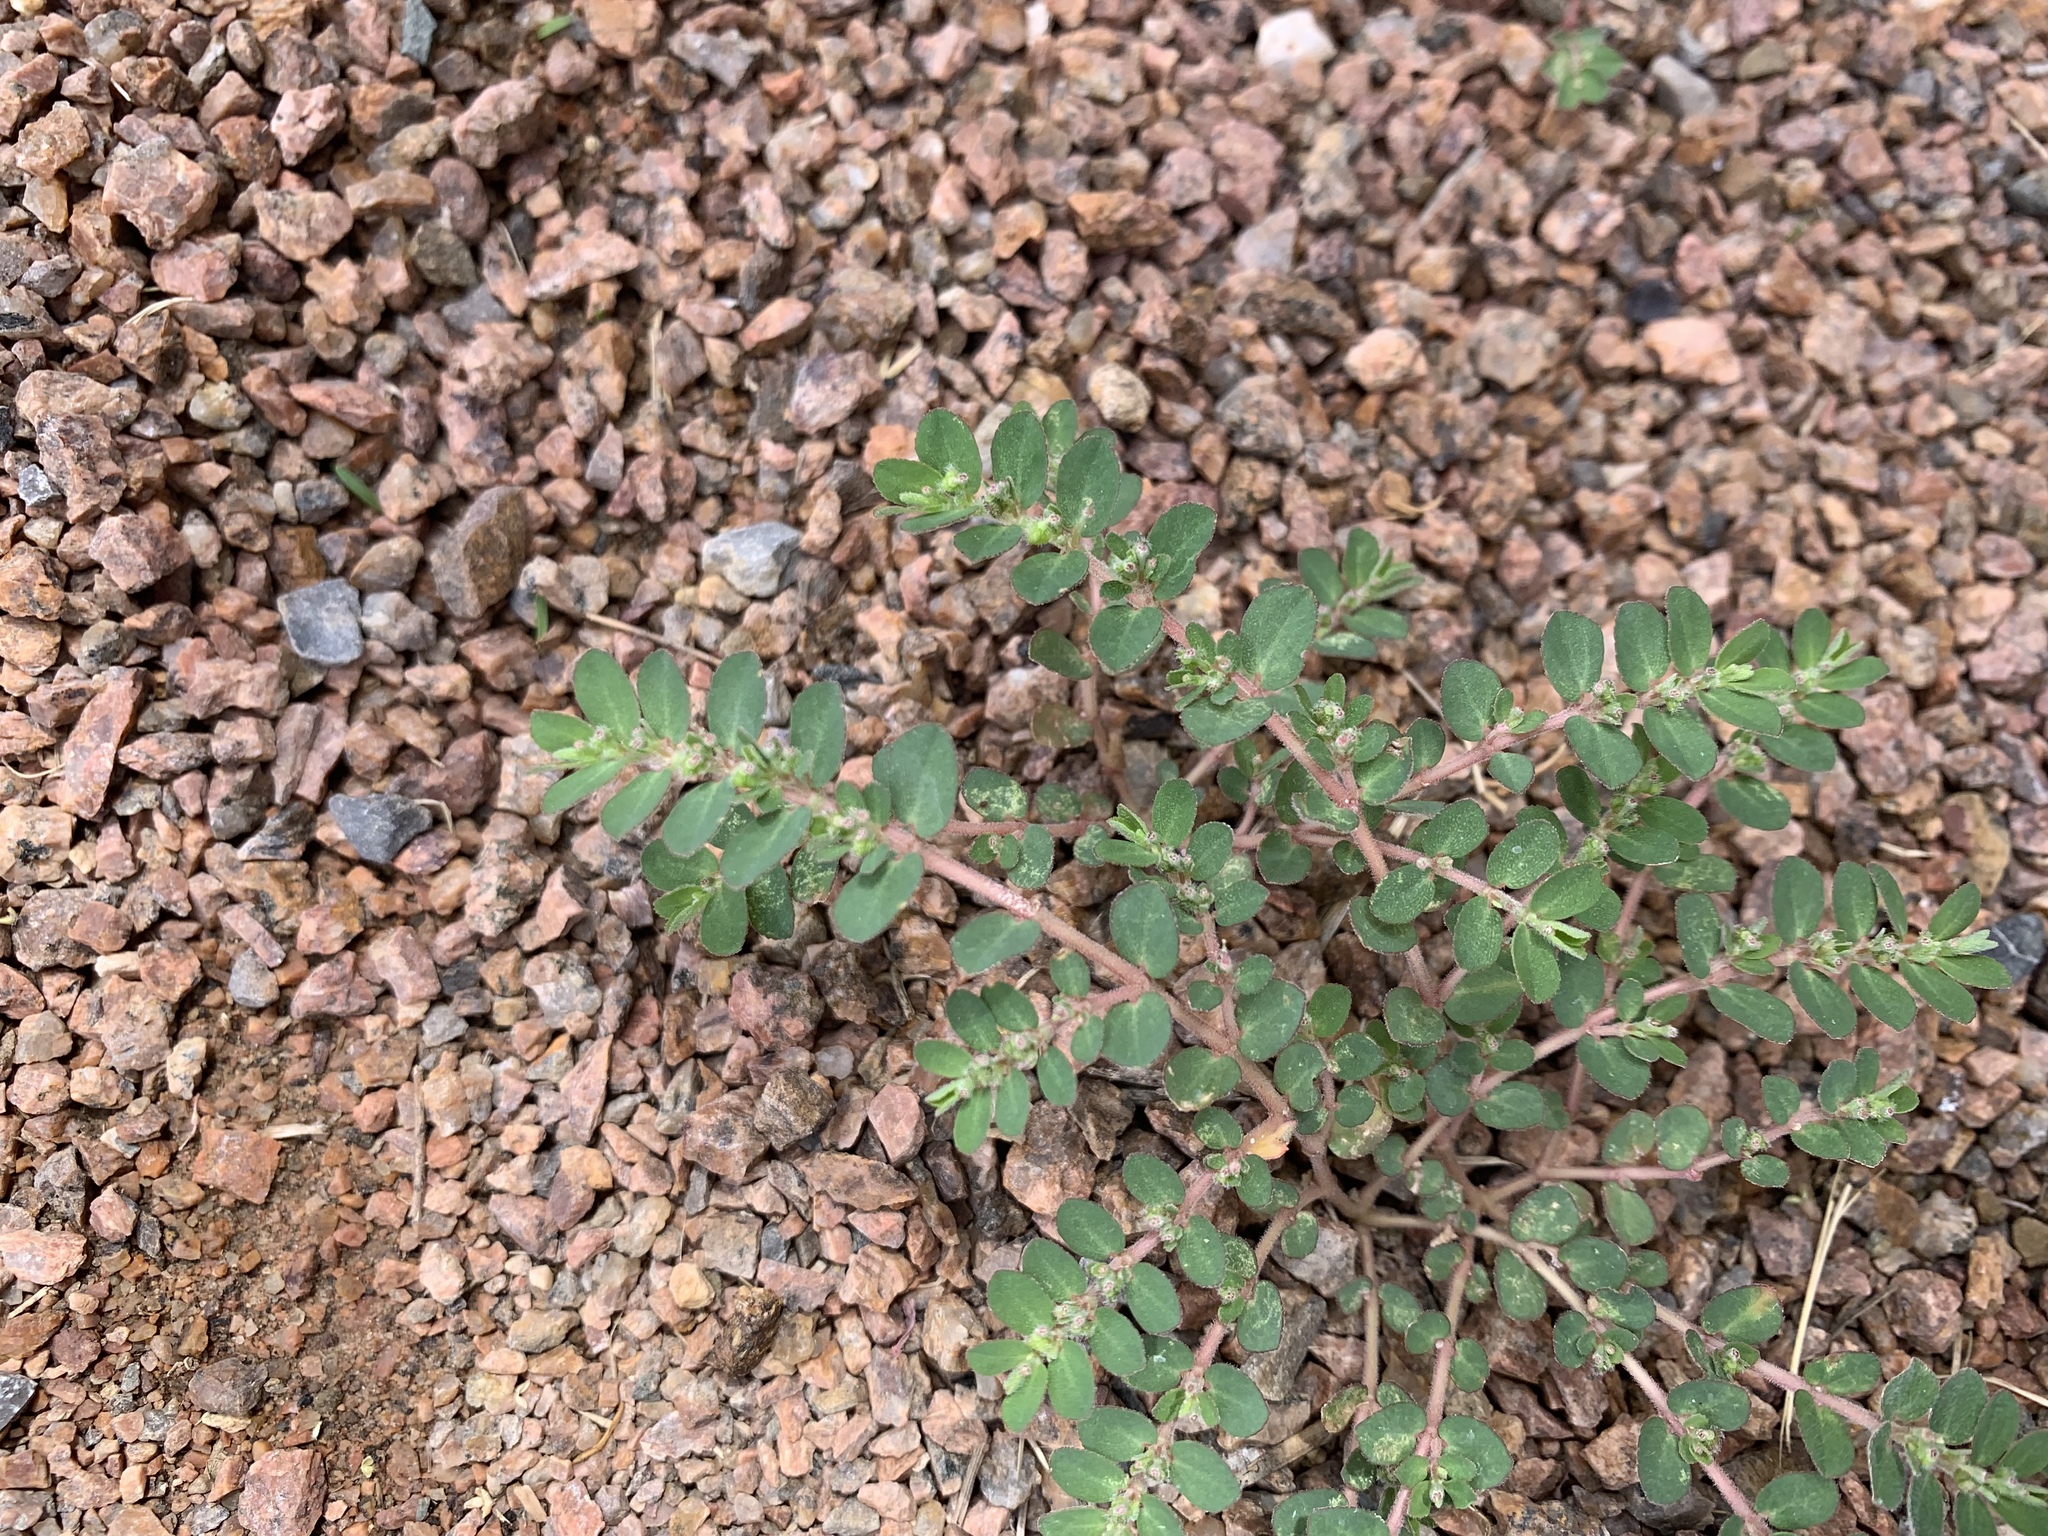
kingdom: Plantae
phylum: Tracheophyta
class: Magnoliopsida
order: Malpighiales
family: Euphorbiaceae
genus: Euphorbia
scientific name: Euphorbia prostrata
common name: Prostrate sandmat
